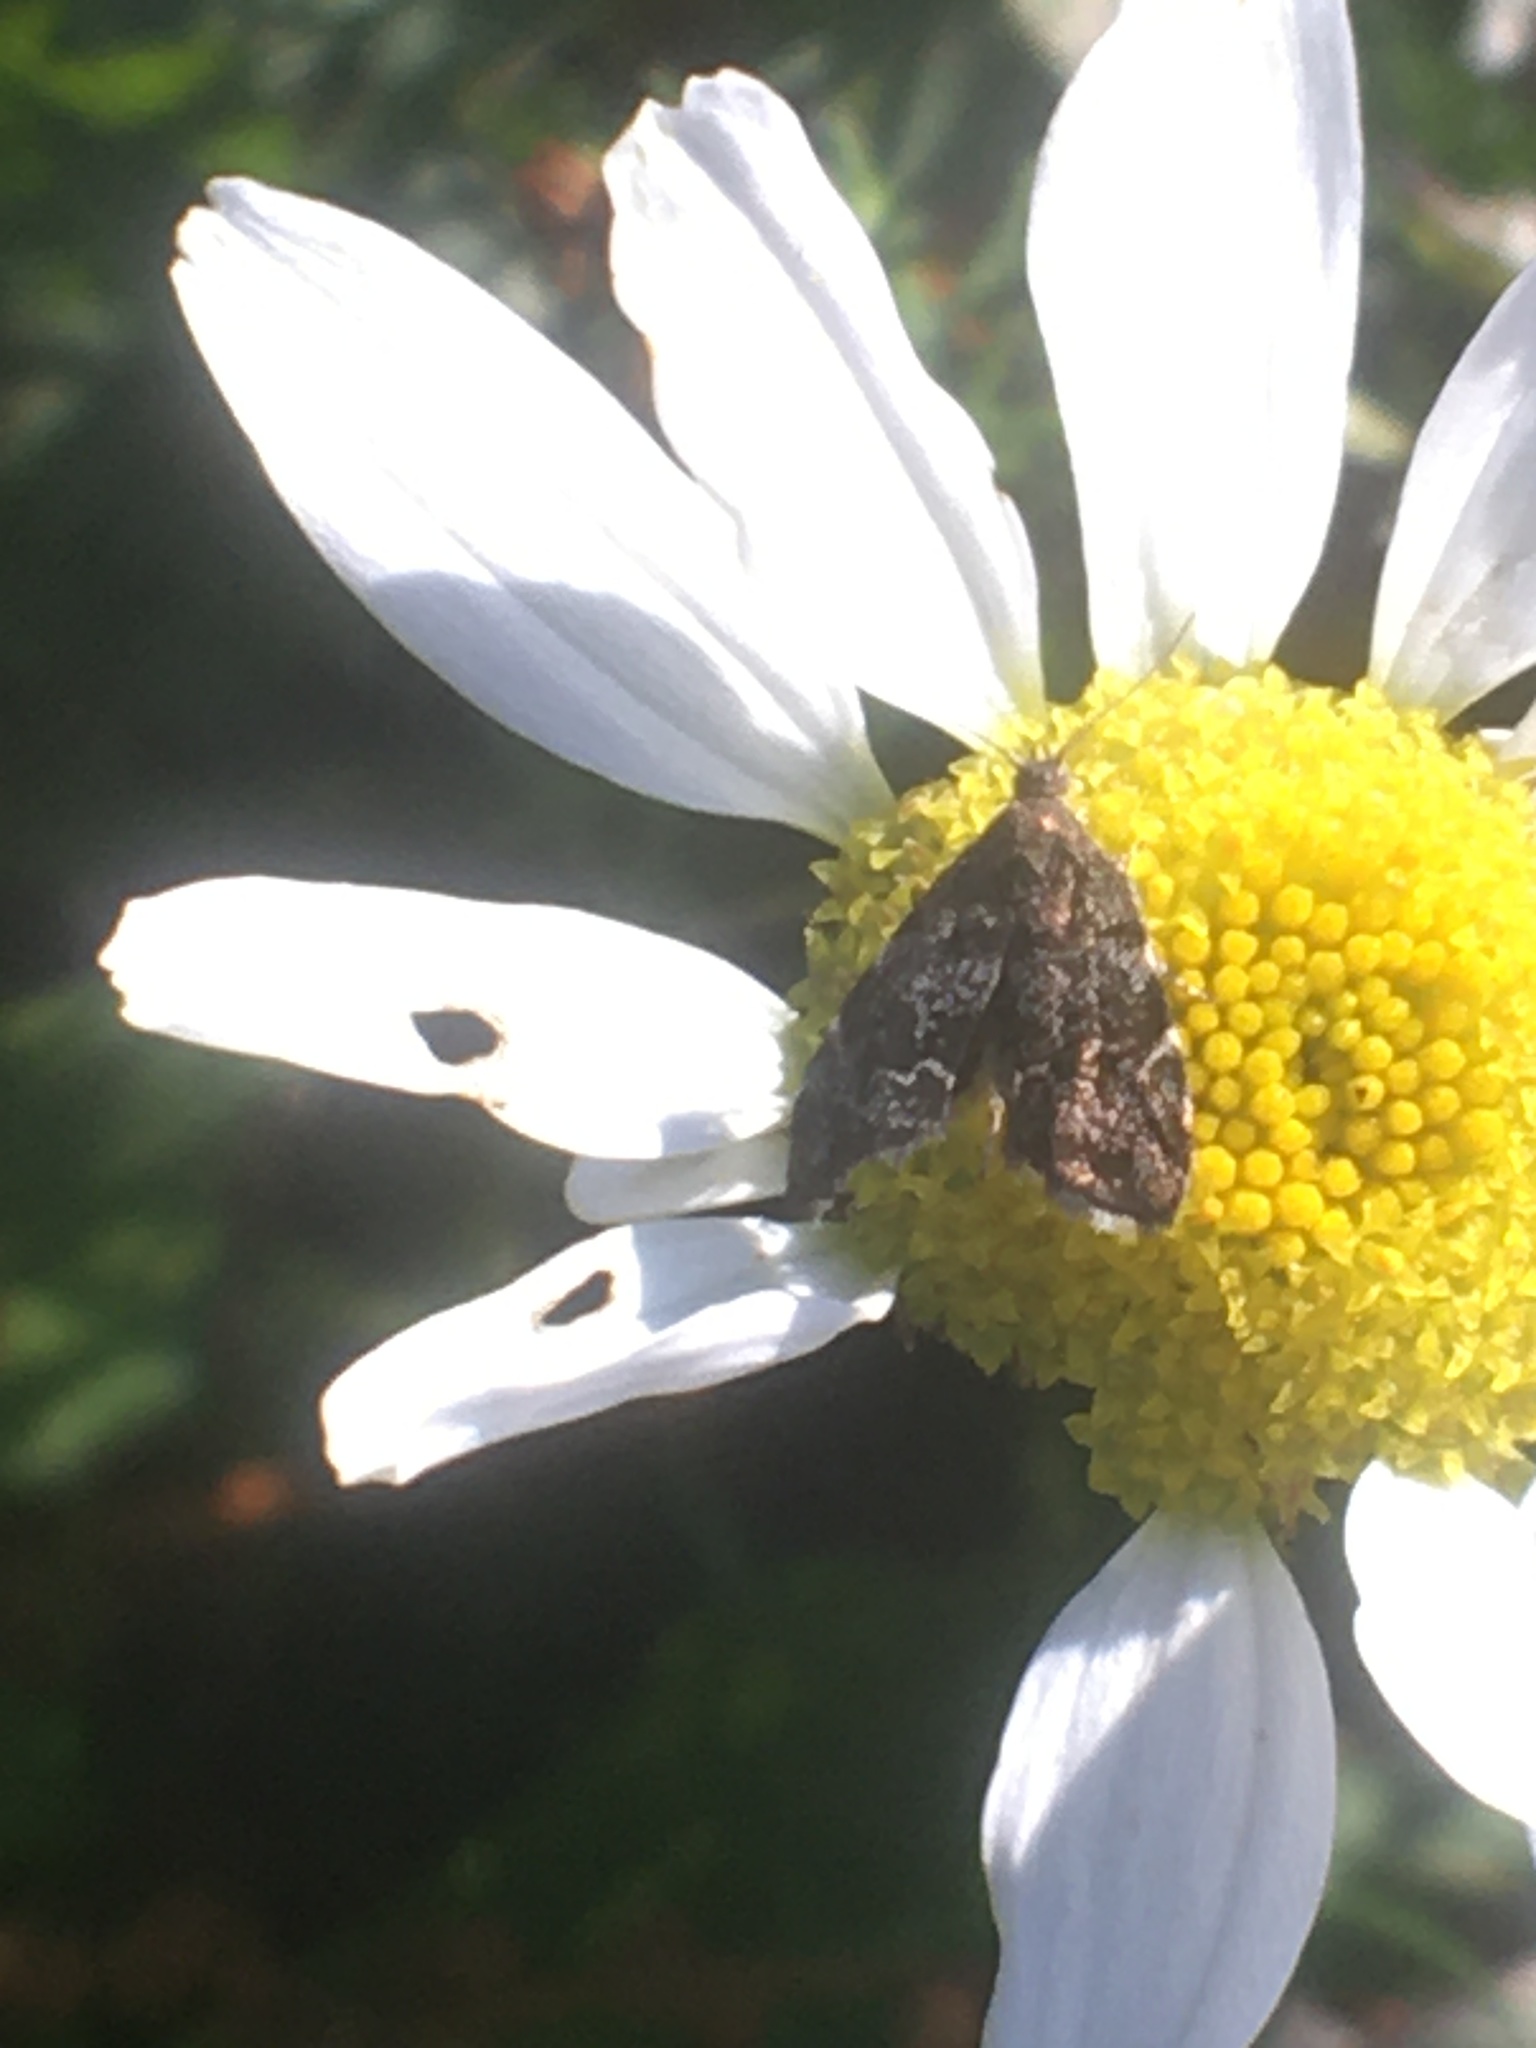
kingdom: Animalia
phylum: Arthropoda
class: Insecta
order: Lepidoptera
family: Choreutidae
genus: Anthophila
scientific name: Anthophila fabriciana
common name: Nettle-tap
